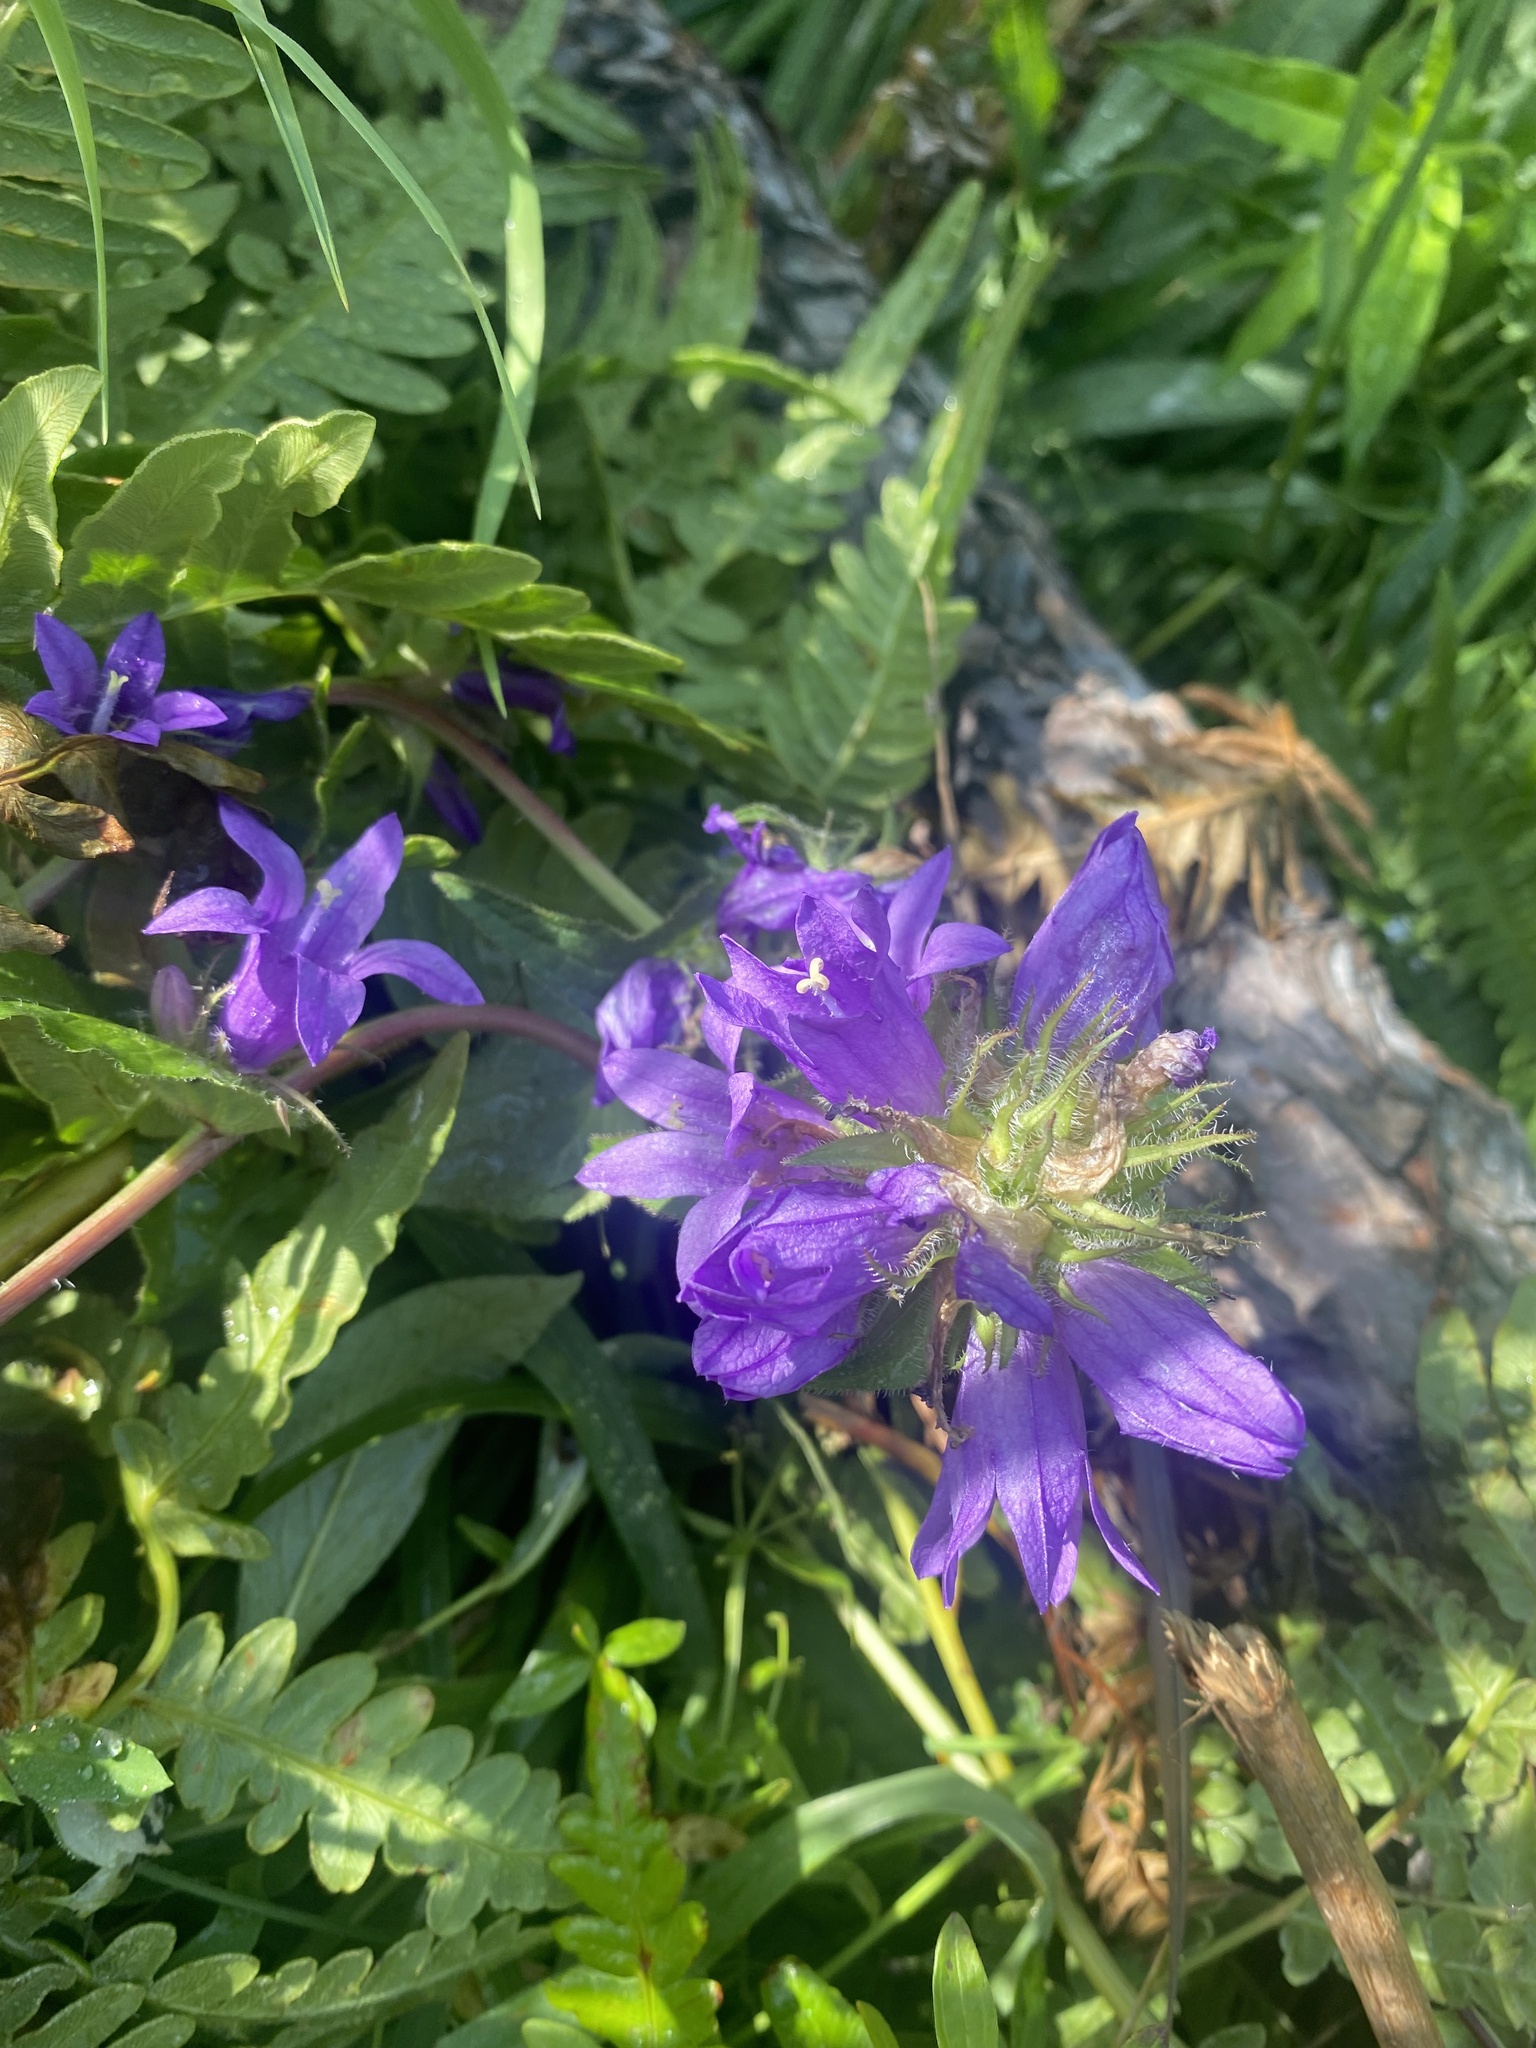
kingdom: Plantae
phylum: Tracheophyta
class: Magnoliopsida
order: Asterales
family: Campanulaceae
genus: Campanula
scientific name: Campanula glomerata
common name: Clustered bellflower
